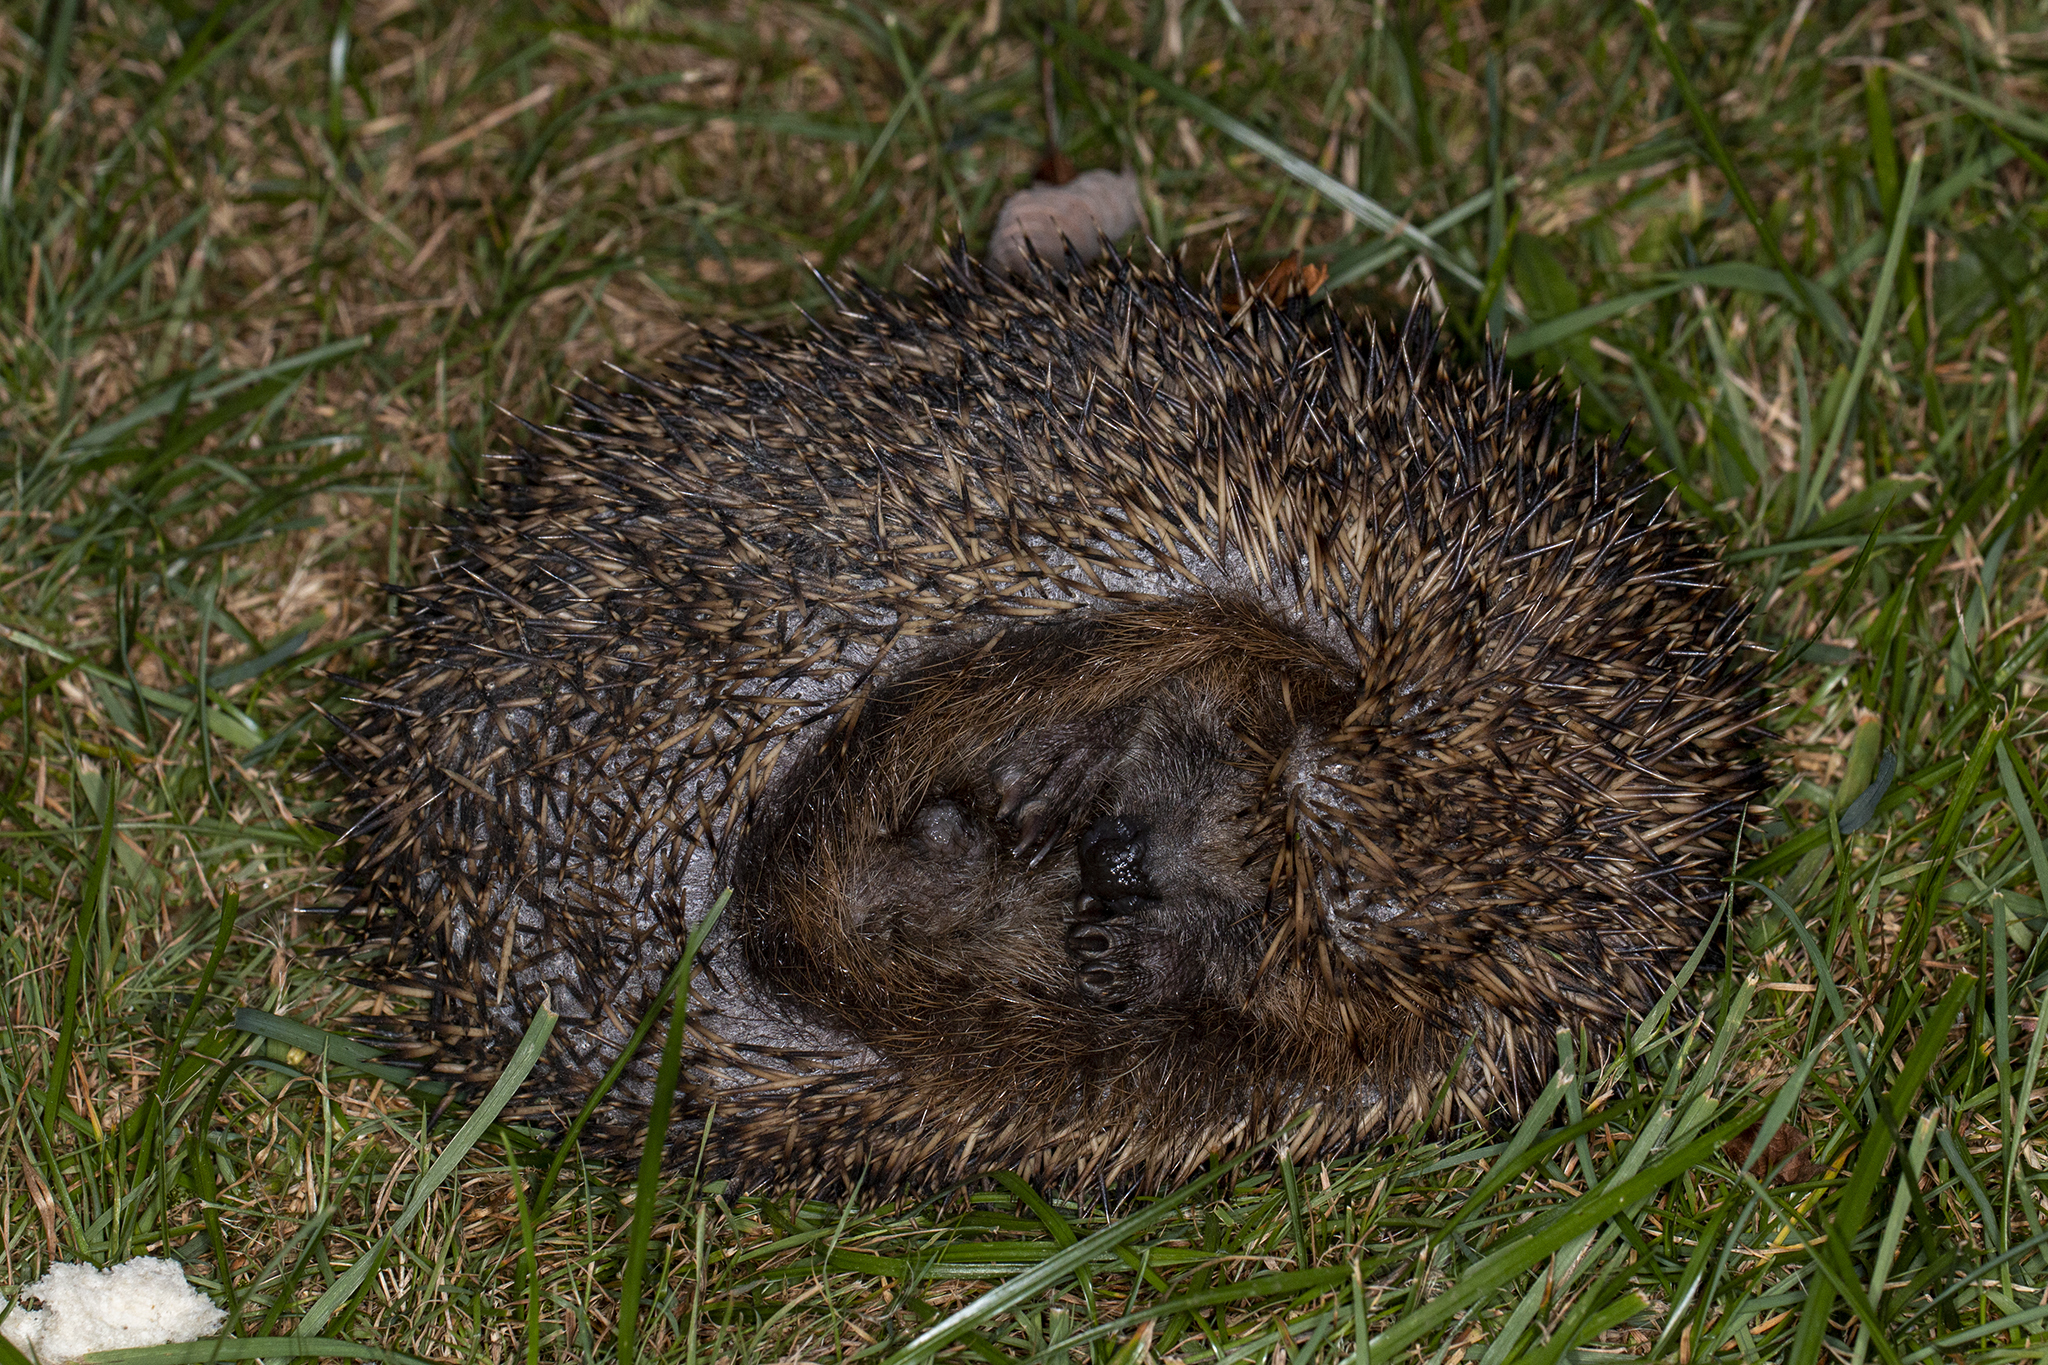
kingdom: Animalia
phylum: Chordata
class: Mammalia
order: Erinaceomorpha
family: Erinaceidae
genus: Erinaceus
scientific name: Erinaceus europaeus
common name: West european hedgehog
